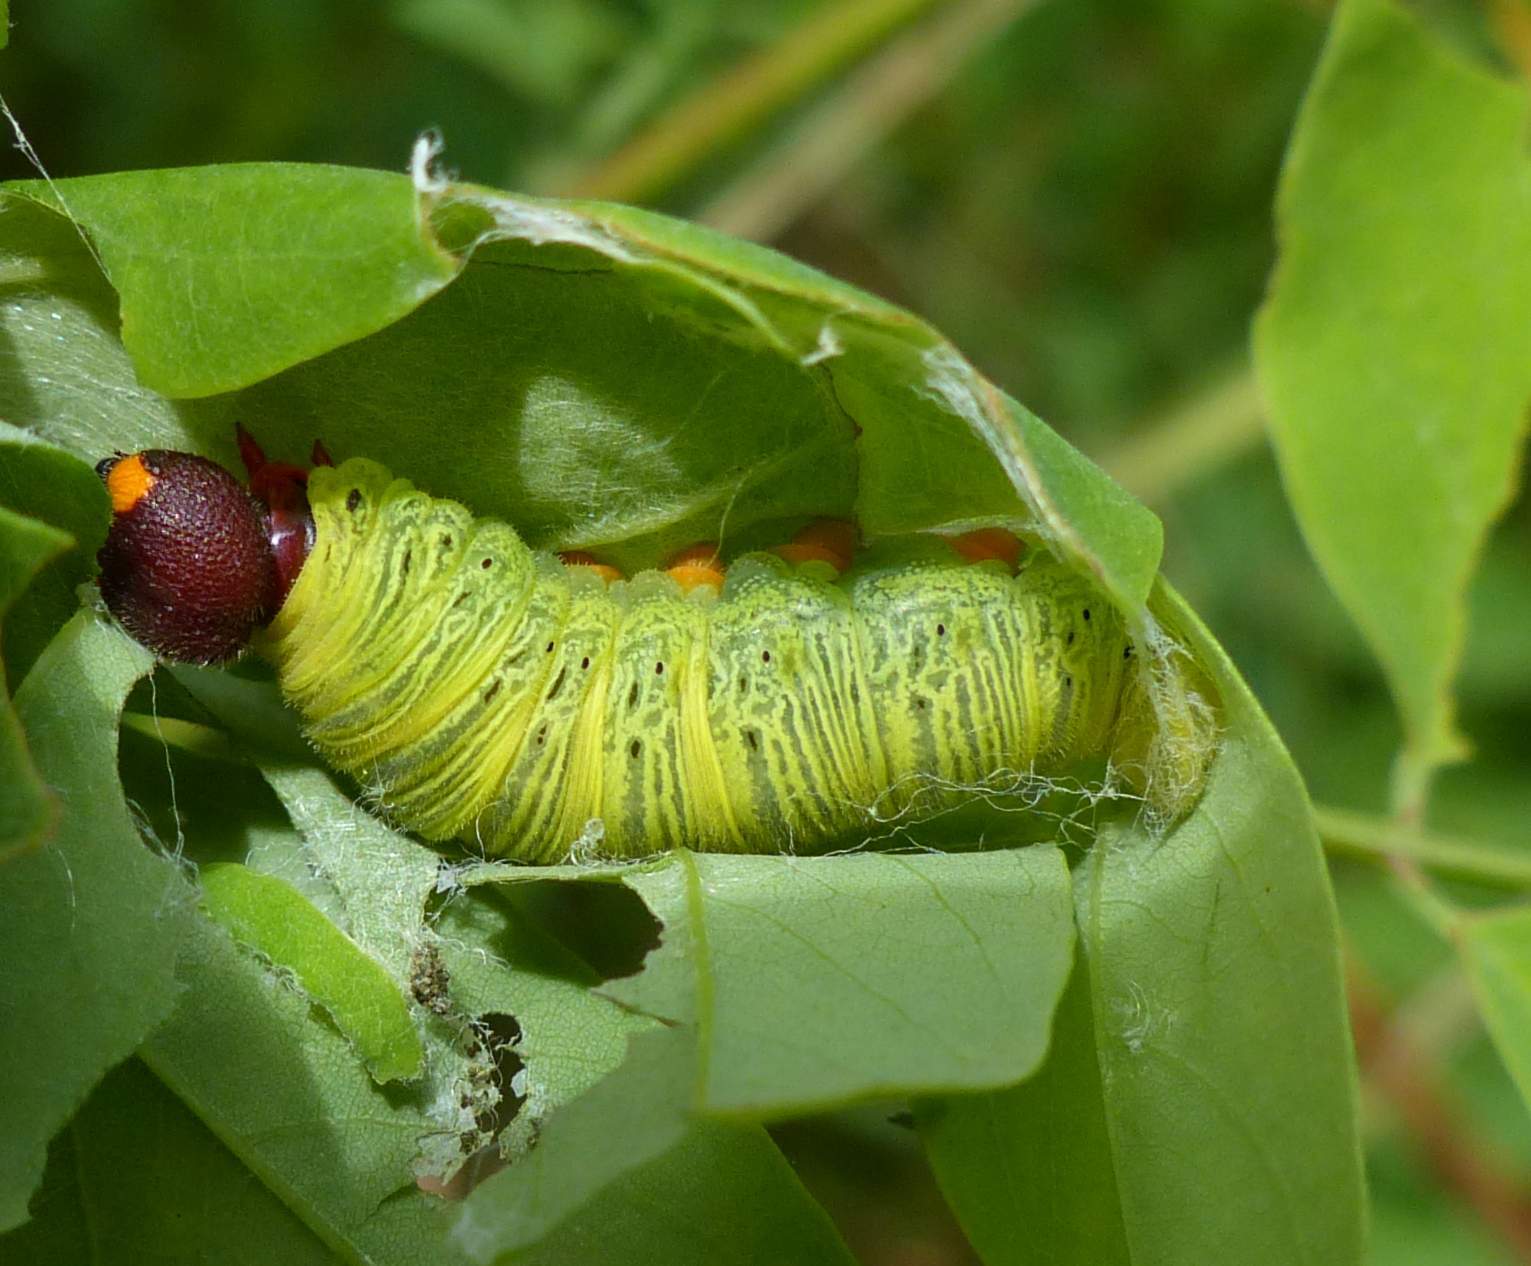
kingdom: Animalia
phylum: Arthropoda
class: Insecta
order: Lepidoptera
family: Hesperiidae
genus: Epargyreus
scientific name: Epargyreus clarus
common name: Silver-spotted skipper
